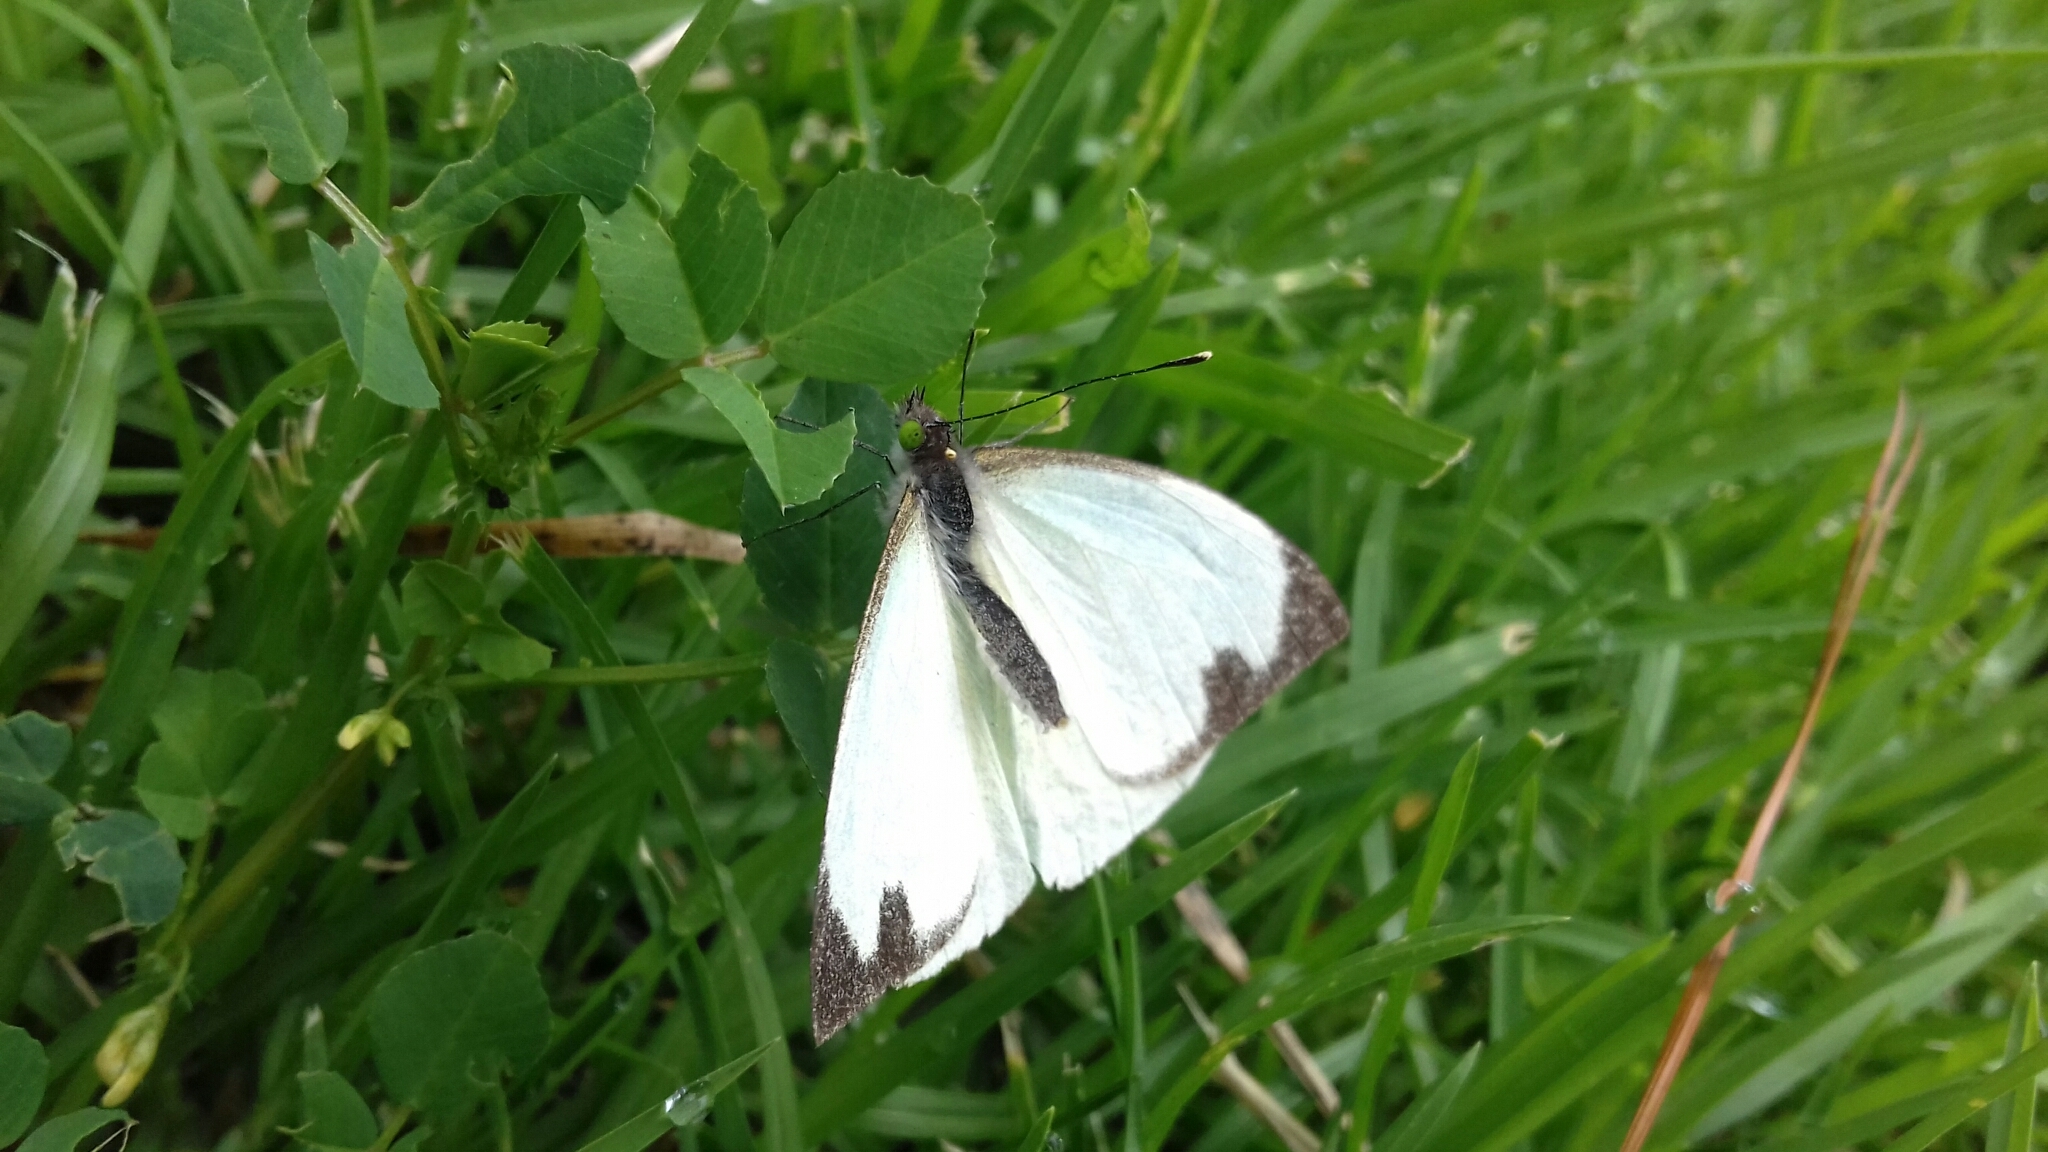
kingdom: Animalia
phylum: Arthropoda
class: Insecta
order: Lepidoptera
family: Pieridae
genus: Leptophobia
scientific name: Leptophobia aripa
